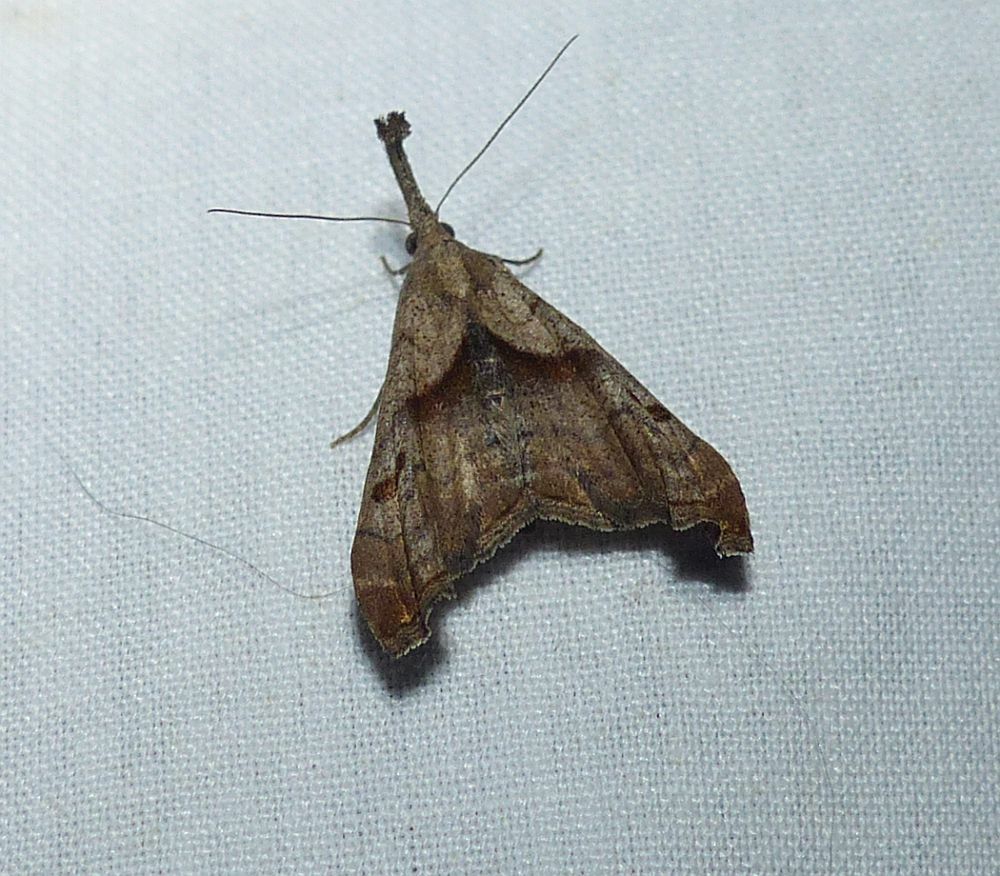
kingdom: Animalia
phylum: Arthropoda
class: Insecta
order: Lepidoptera
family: Erebidae
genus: Palthis
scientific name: Palthis angulalis
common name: Dark-spotted palthis moth
